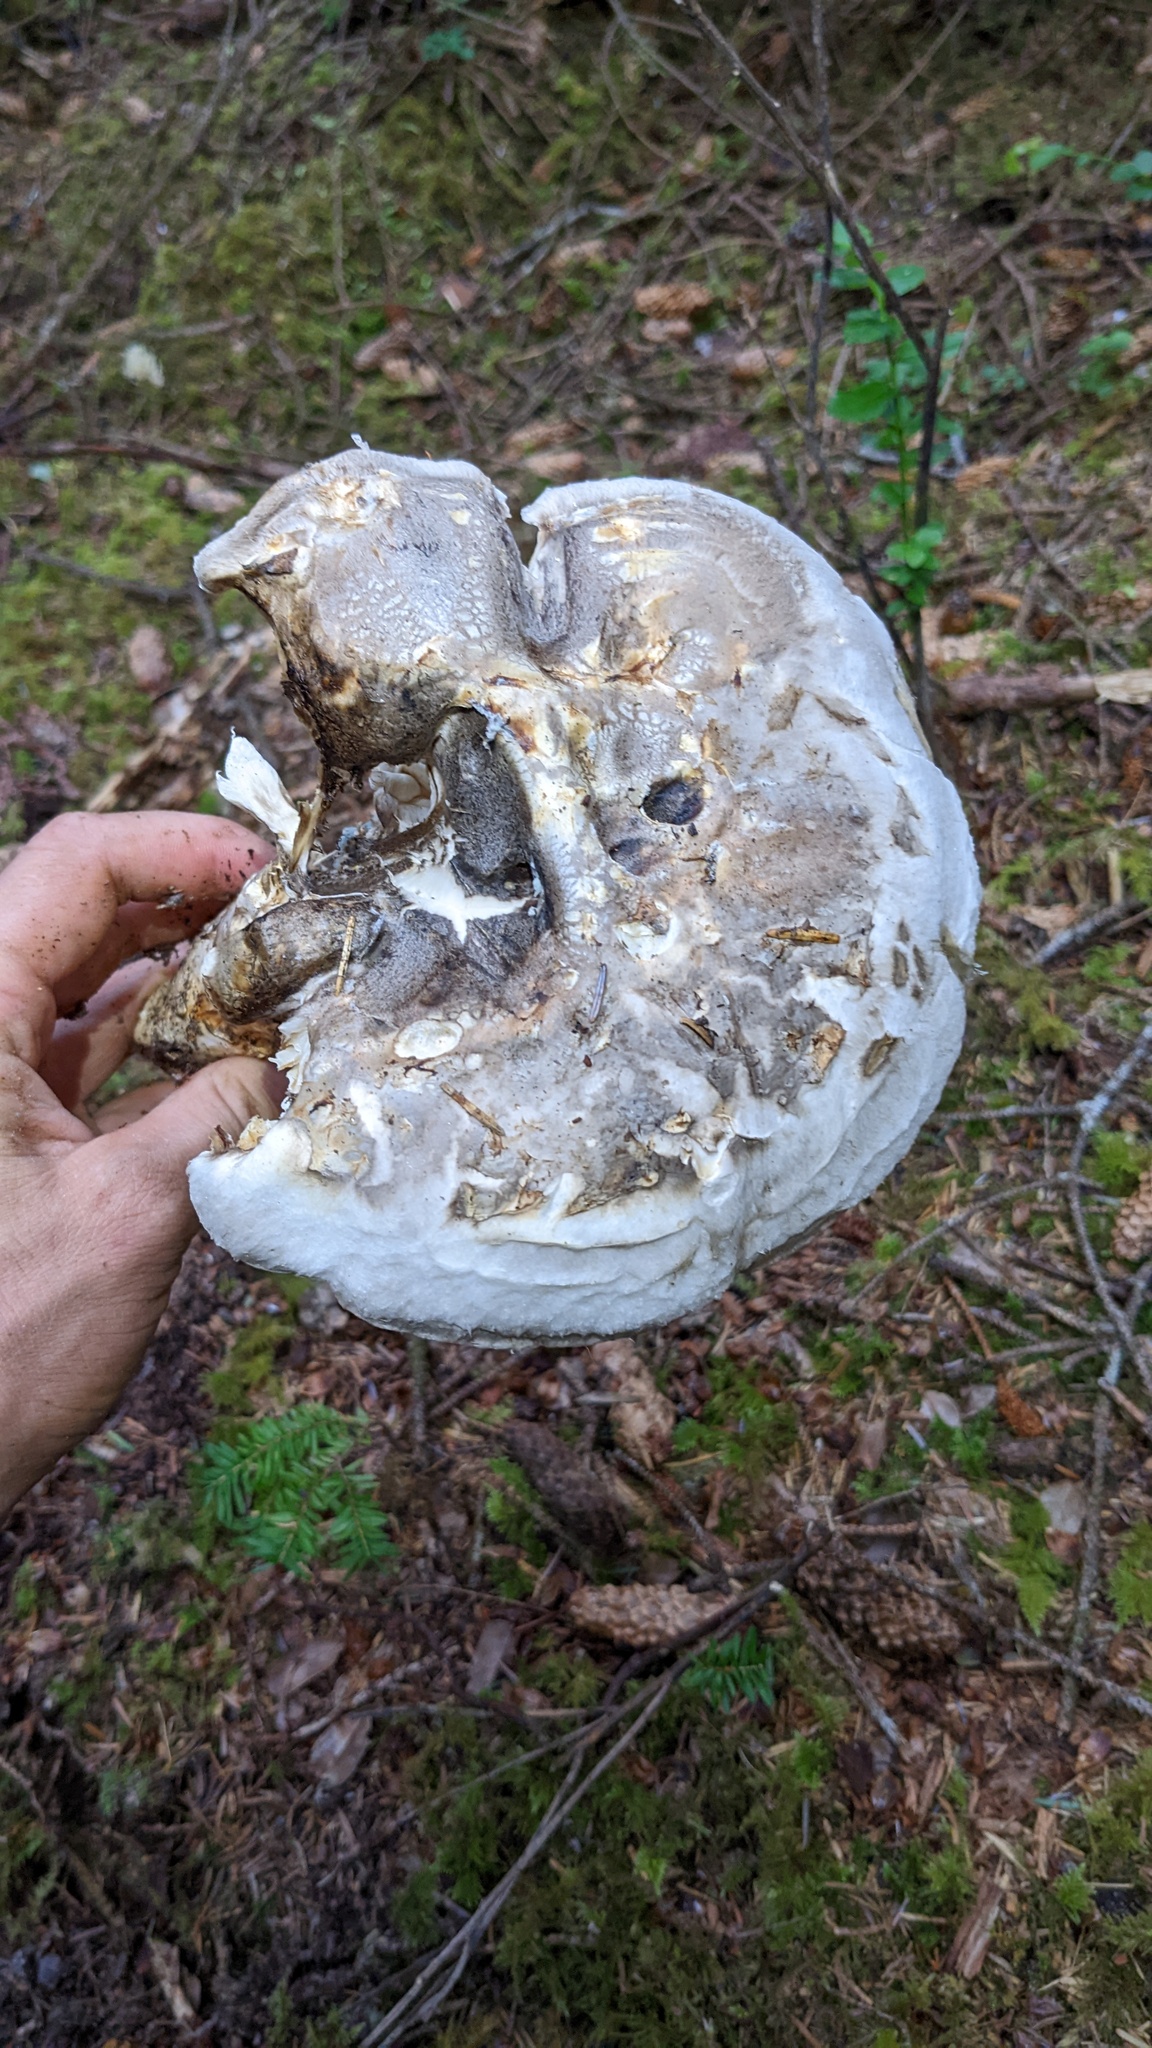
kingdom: Fungi
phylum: Basidiomycota
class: Agaricomycetes
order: Agaricales
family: Biannulariaceae
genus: Catathelasma
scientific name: Catathelasma ventricosum
